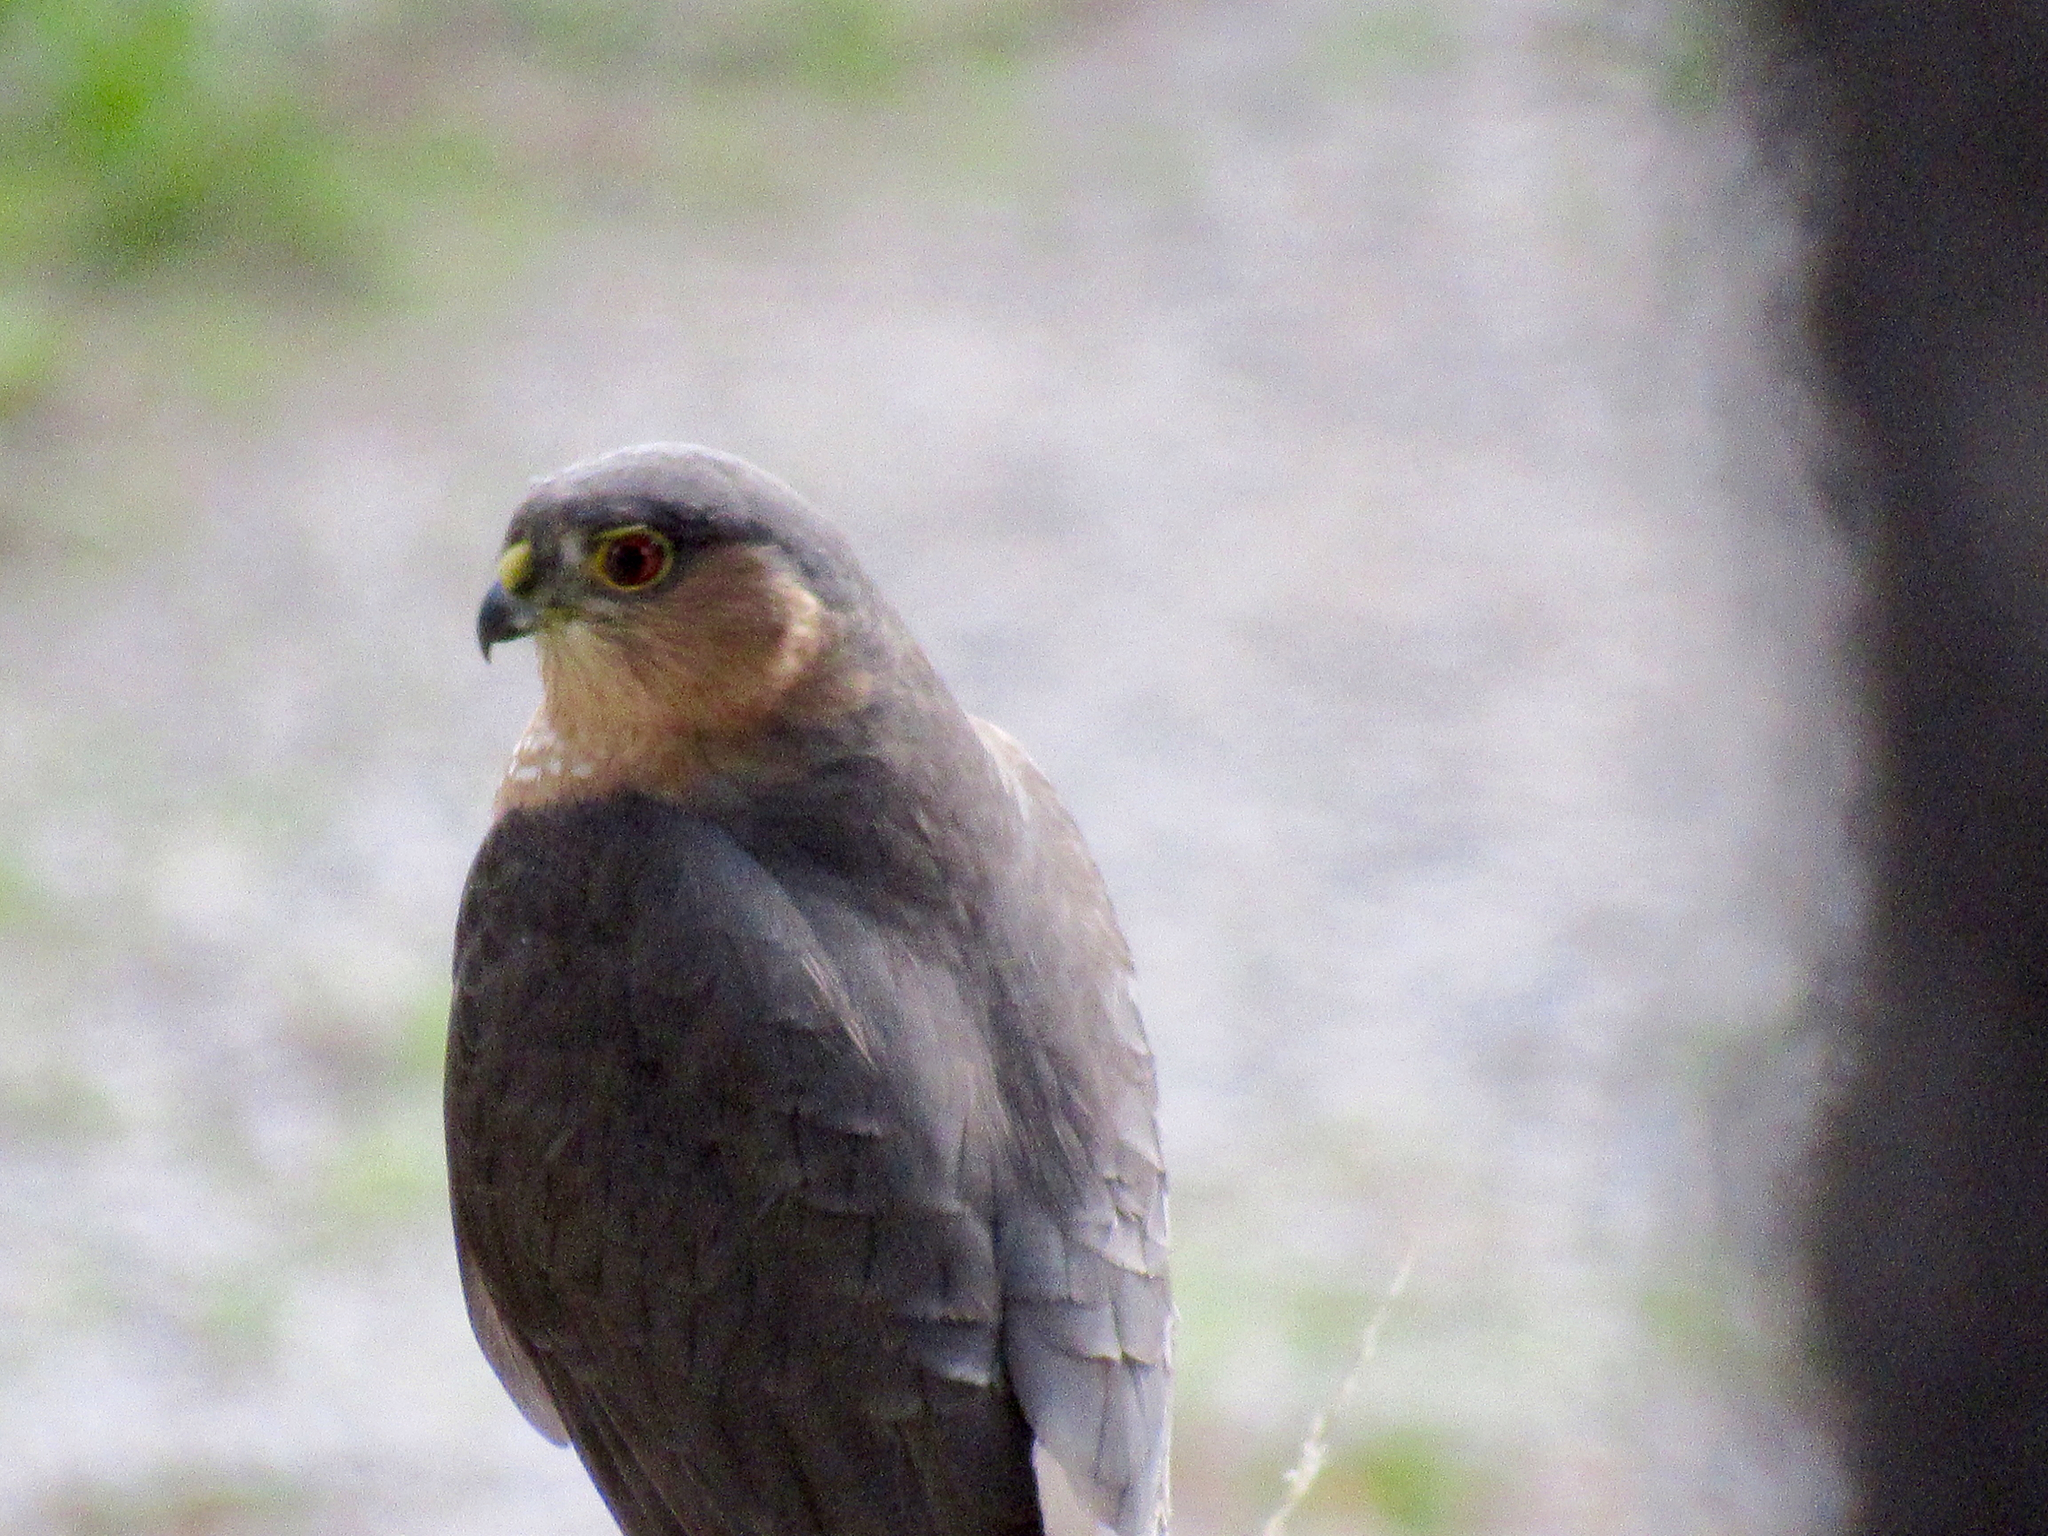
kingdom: Animalia
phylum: Chordata
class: Aves
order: Accipitriformes
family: Accipitridae
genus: Accipiter
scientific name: Accipiter striatus
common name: Sharp-shinned hawk
